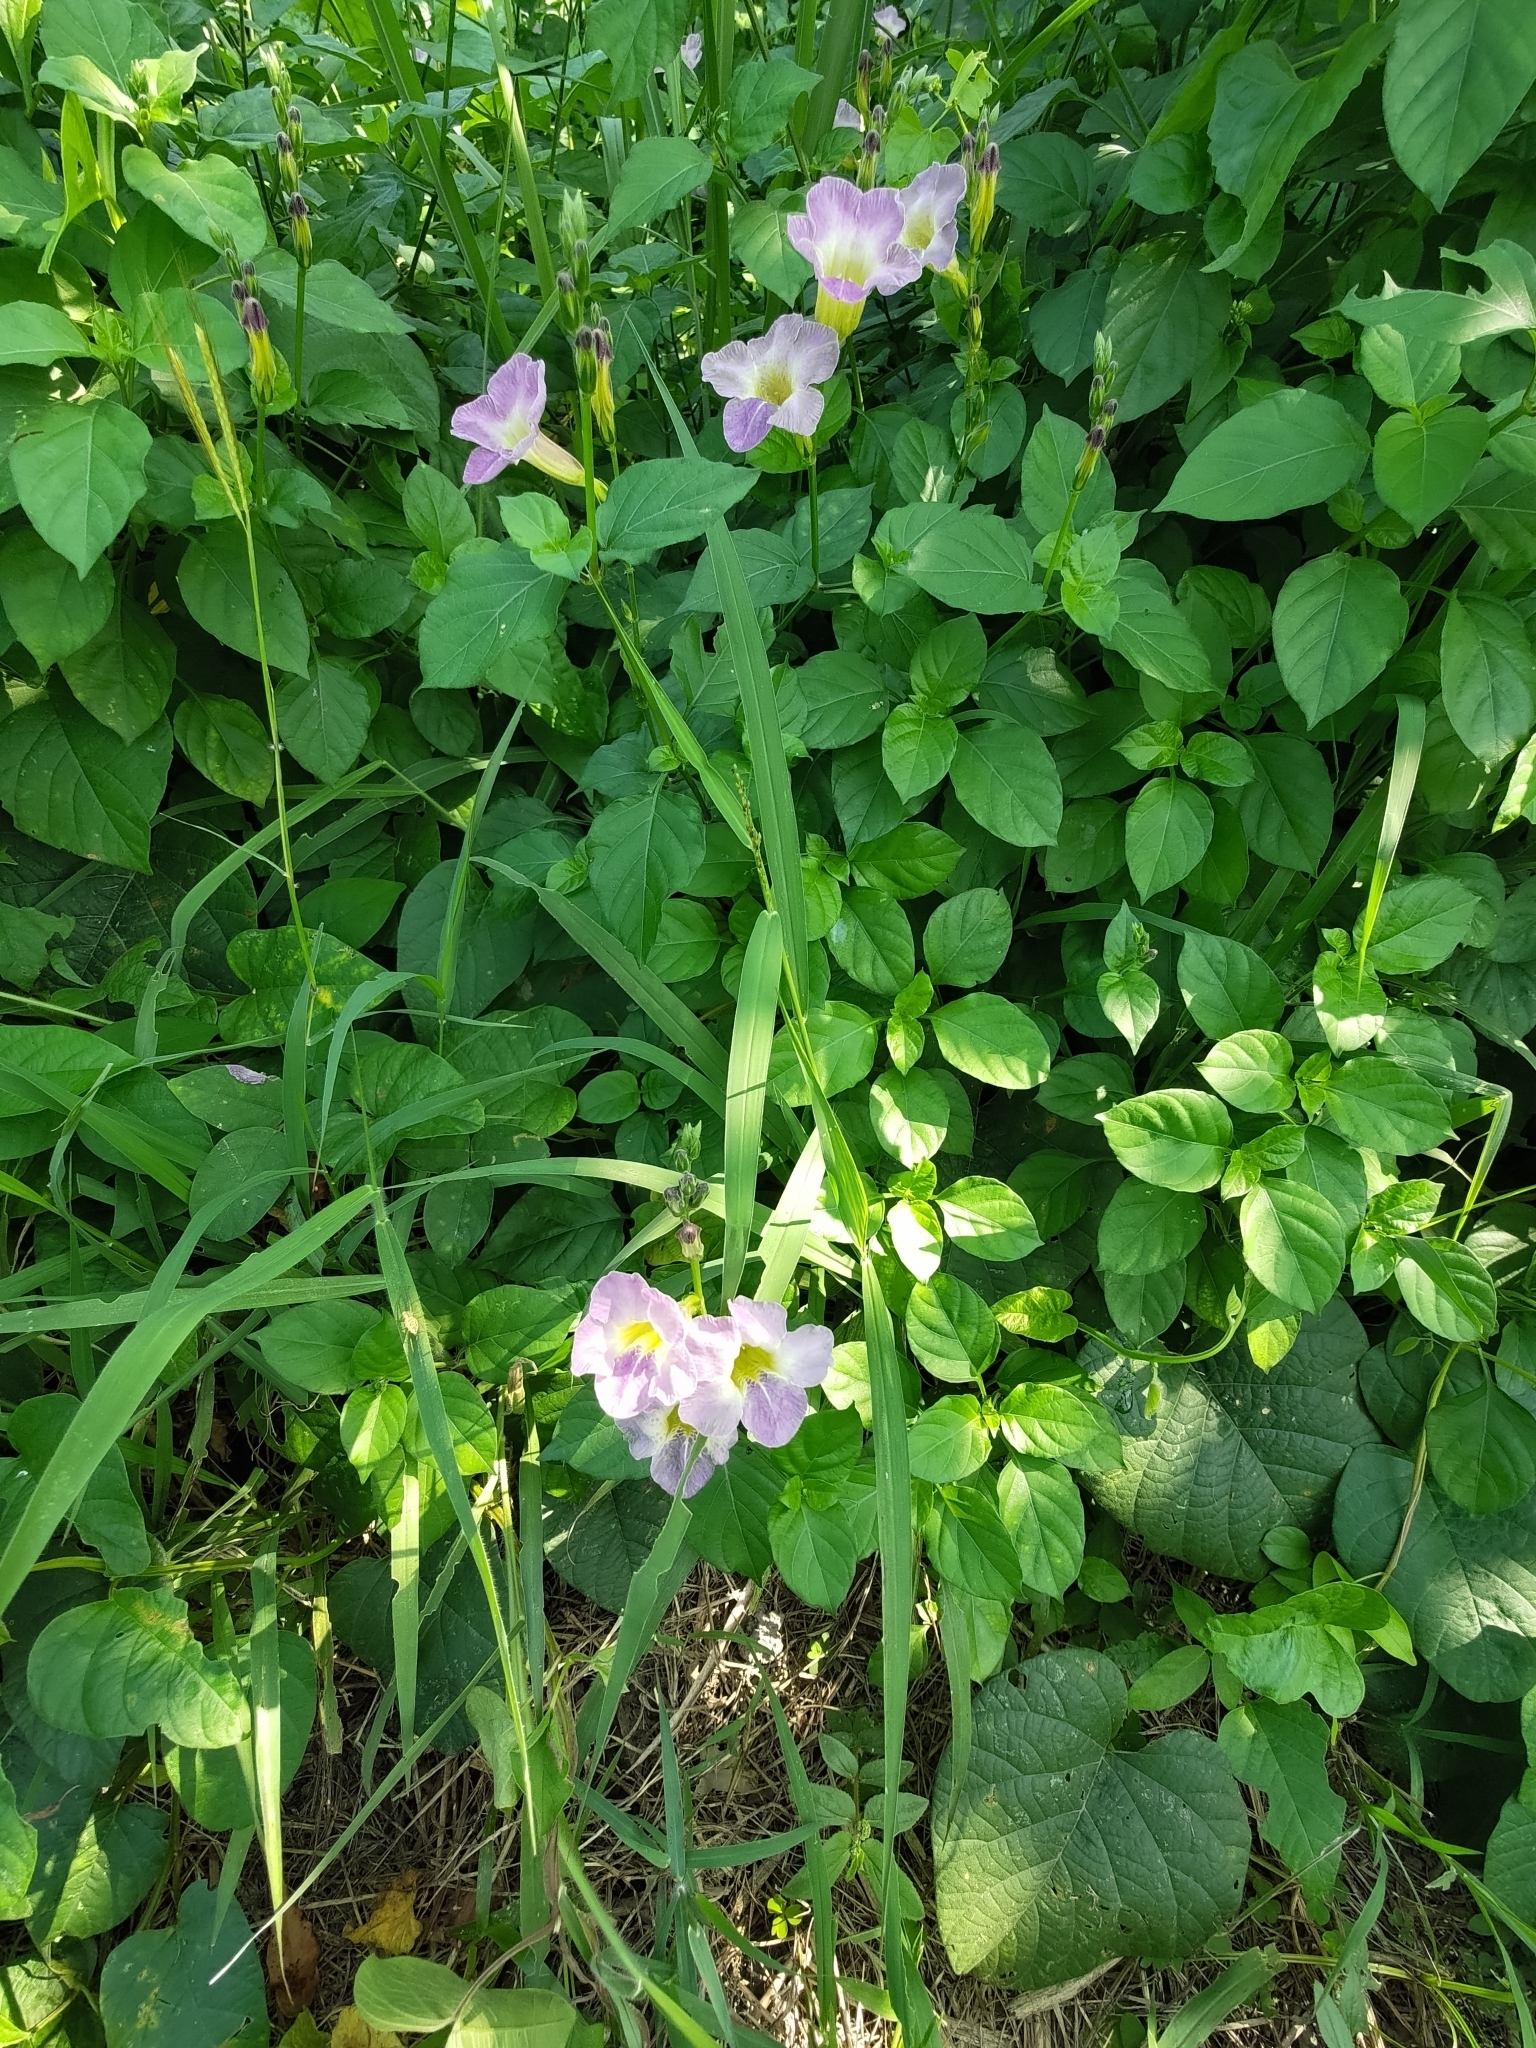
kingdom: Plantae
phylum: Tracheophyta
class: Magnoliopsida
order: Lamiales
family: Acanthaceae
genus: Asystasia
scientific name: Asystasia gangetica
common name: Chinese violet
